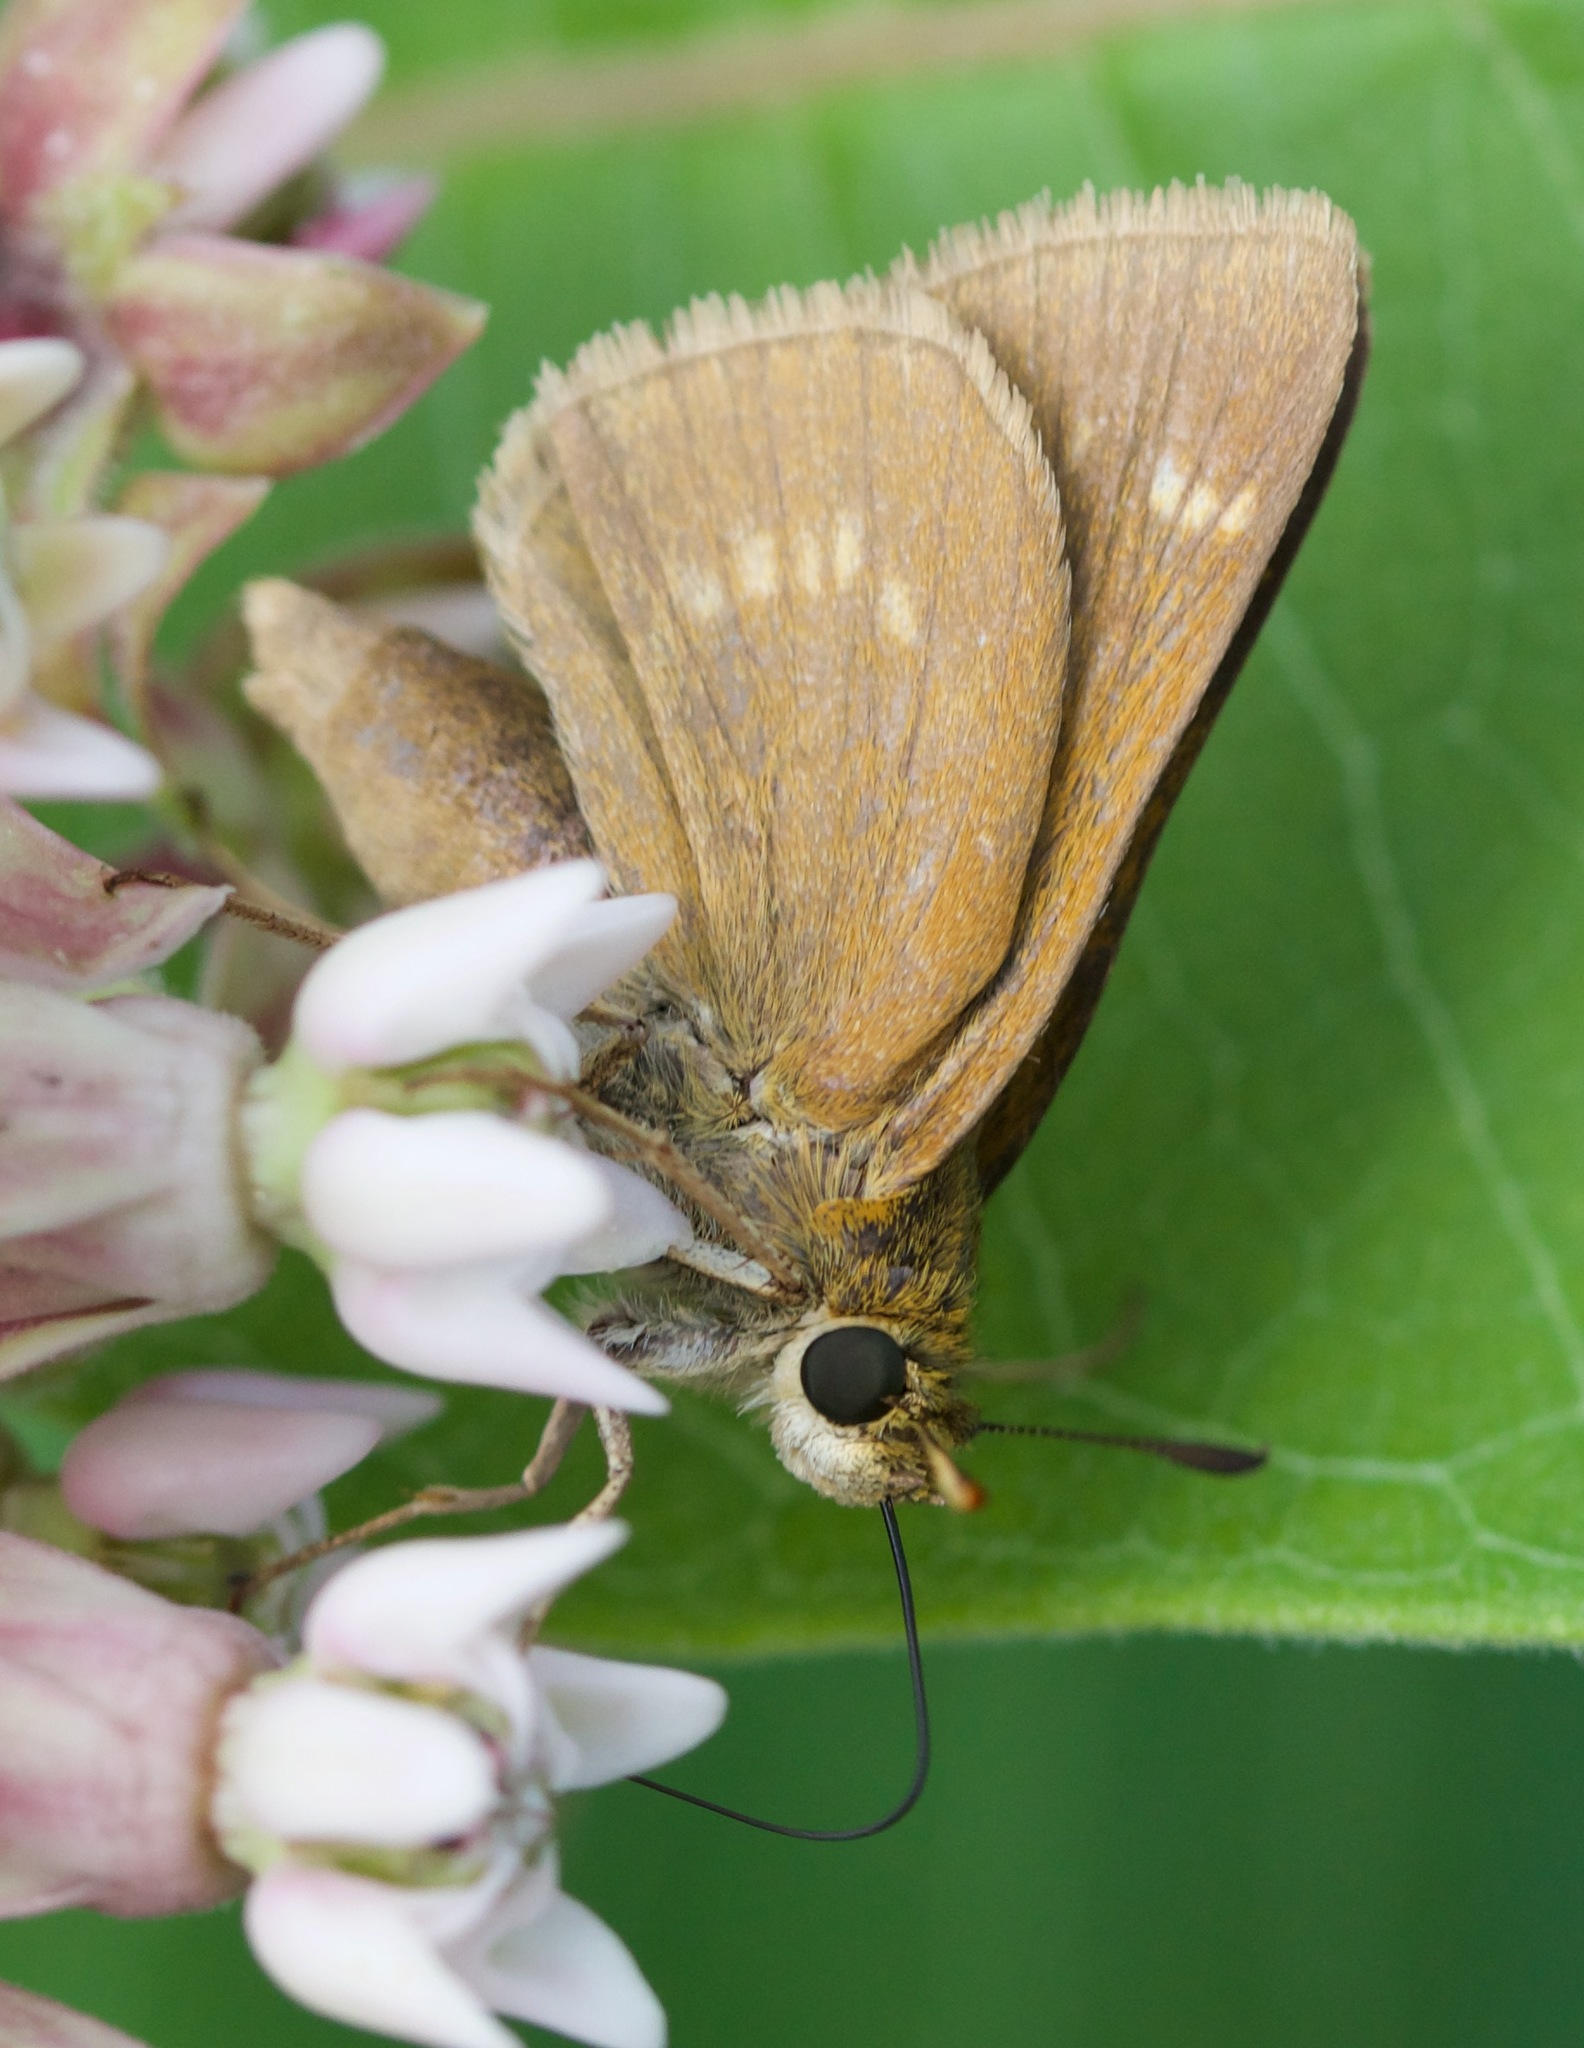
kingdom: Animalia
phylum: Arthropoda
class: Insecta
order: Lepidoptera
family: Hesperiidae
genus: Polites
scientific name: Polites origenes
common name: Crossline skipper
